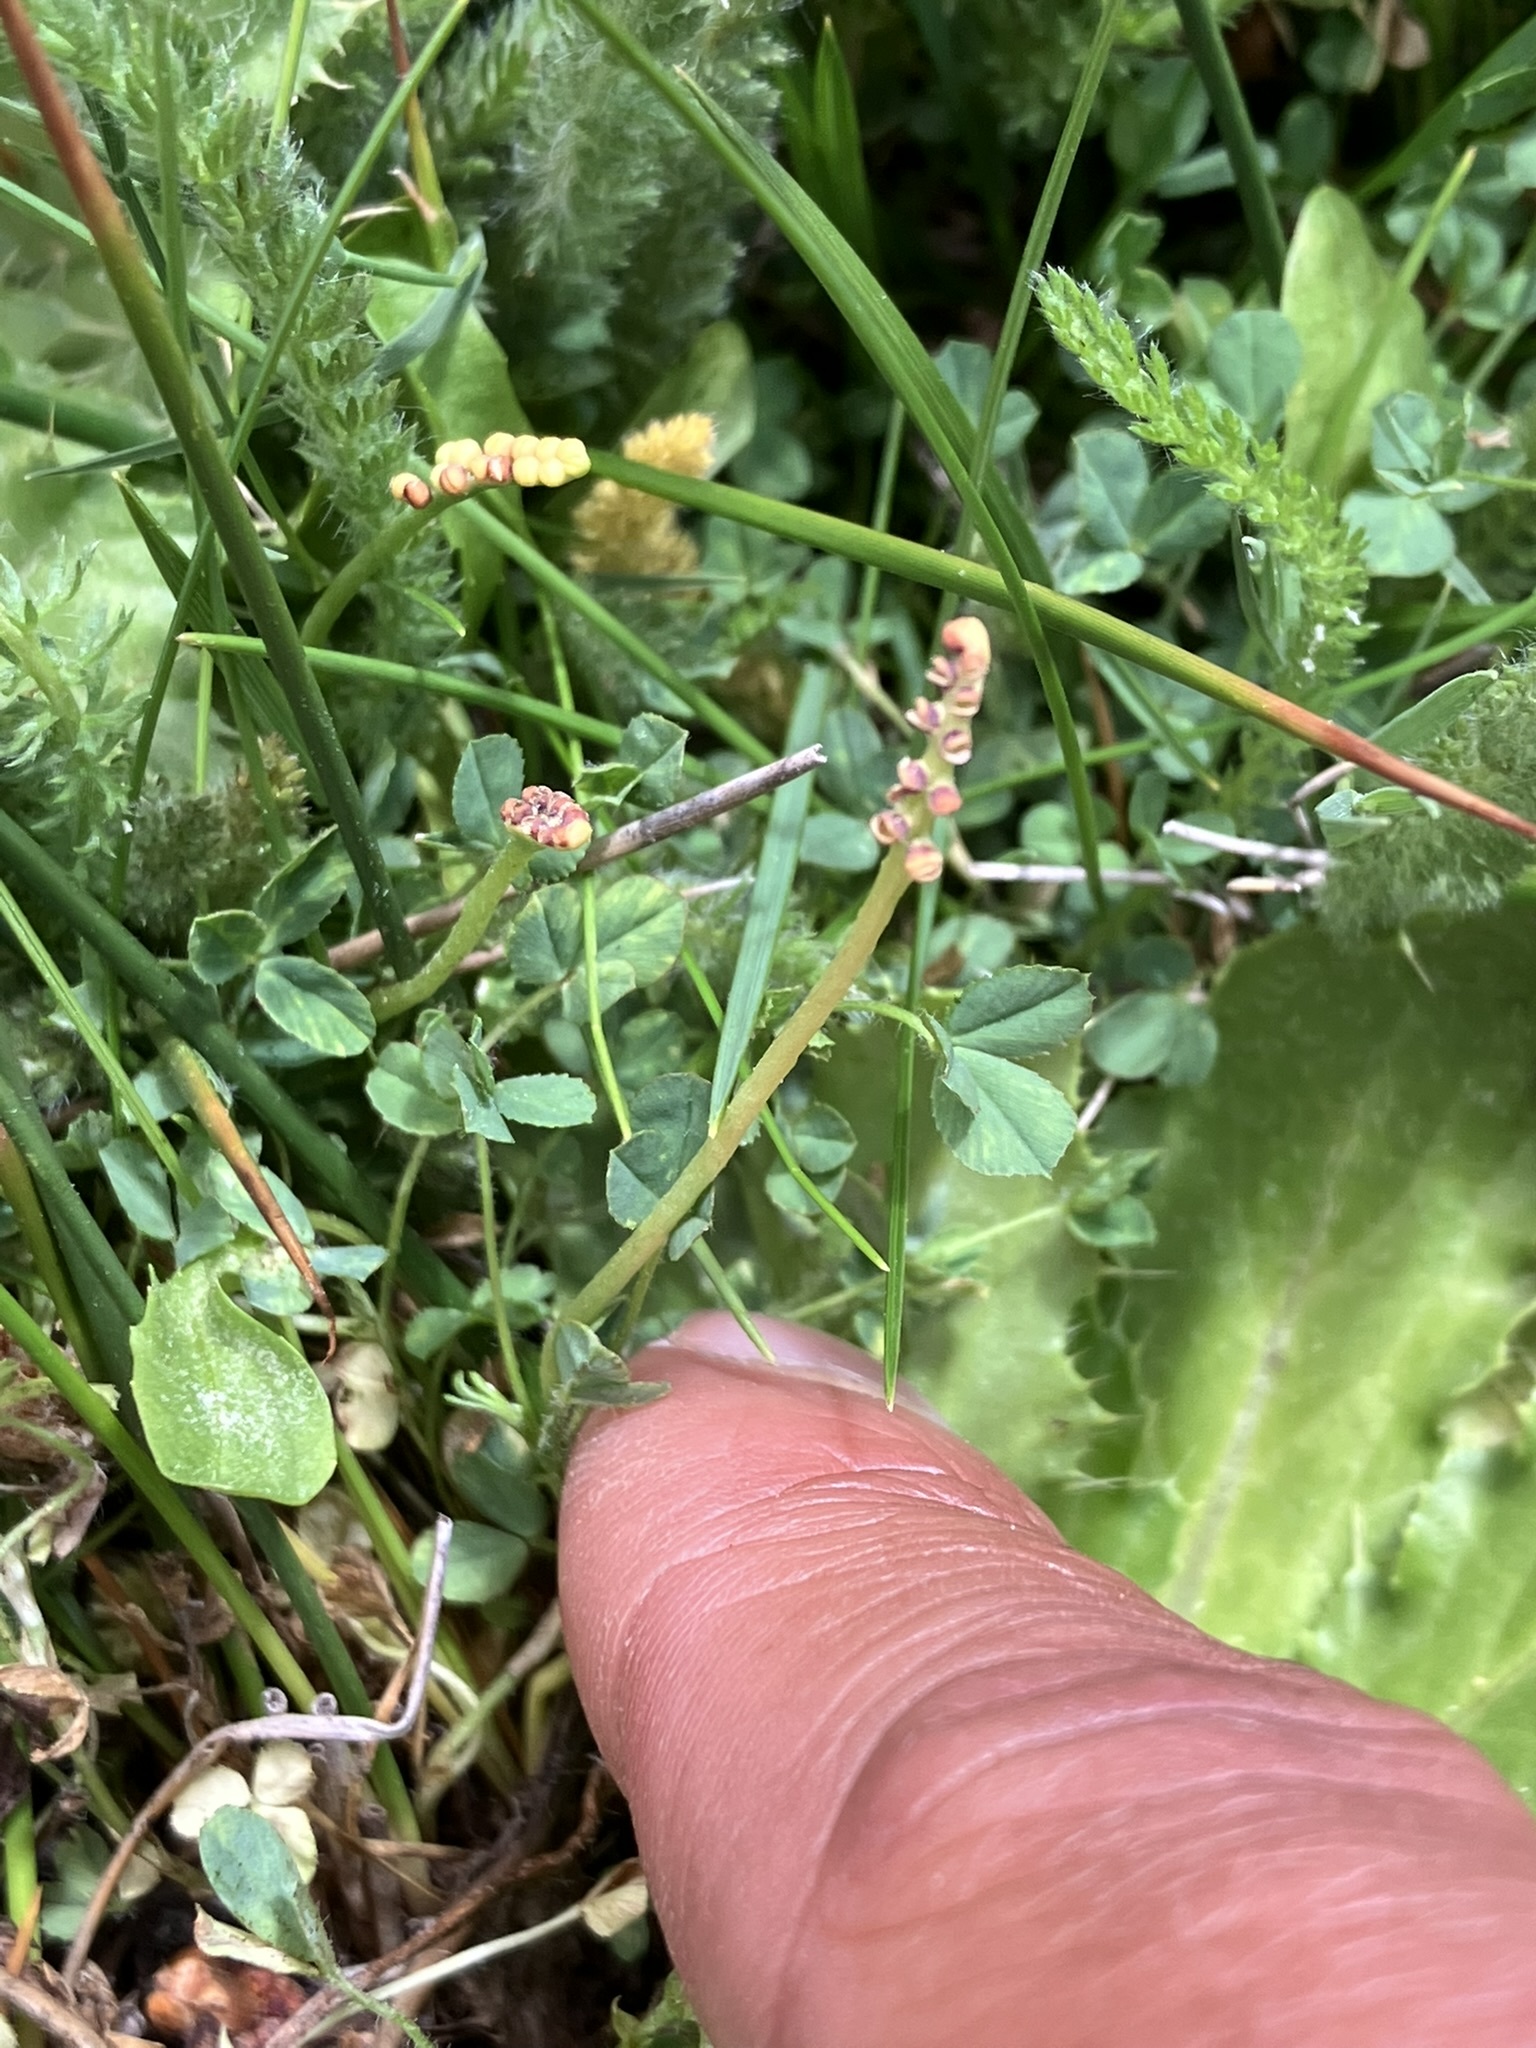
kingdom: Plantae
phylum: Tracheophyta
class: Polypodiopsida
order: Ophioglossales
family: Ophioglossaceae
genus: Botrychium
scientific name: Botrychium simplex
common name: Least moonwort
